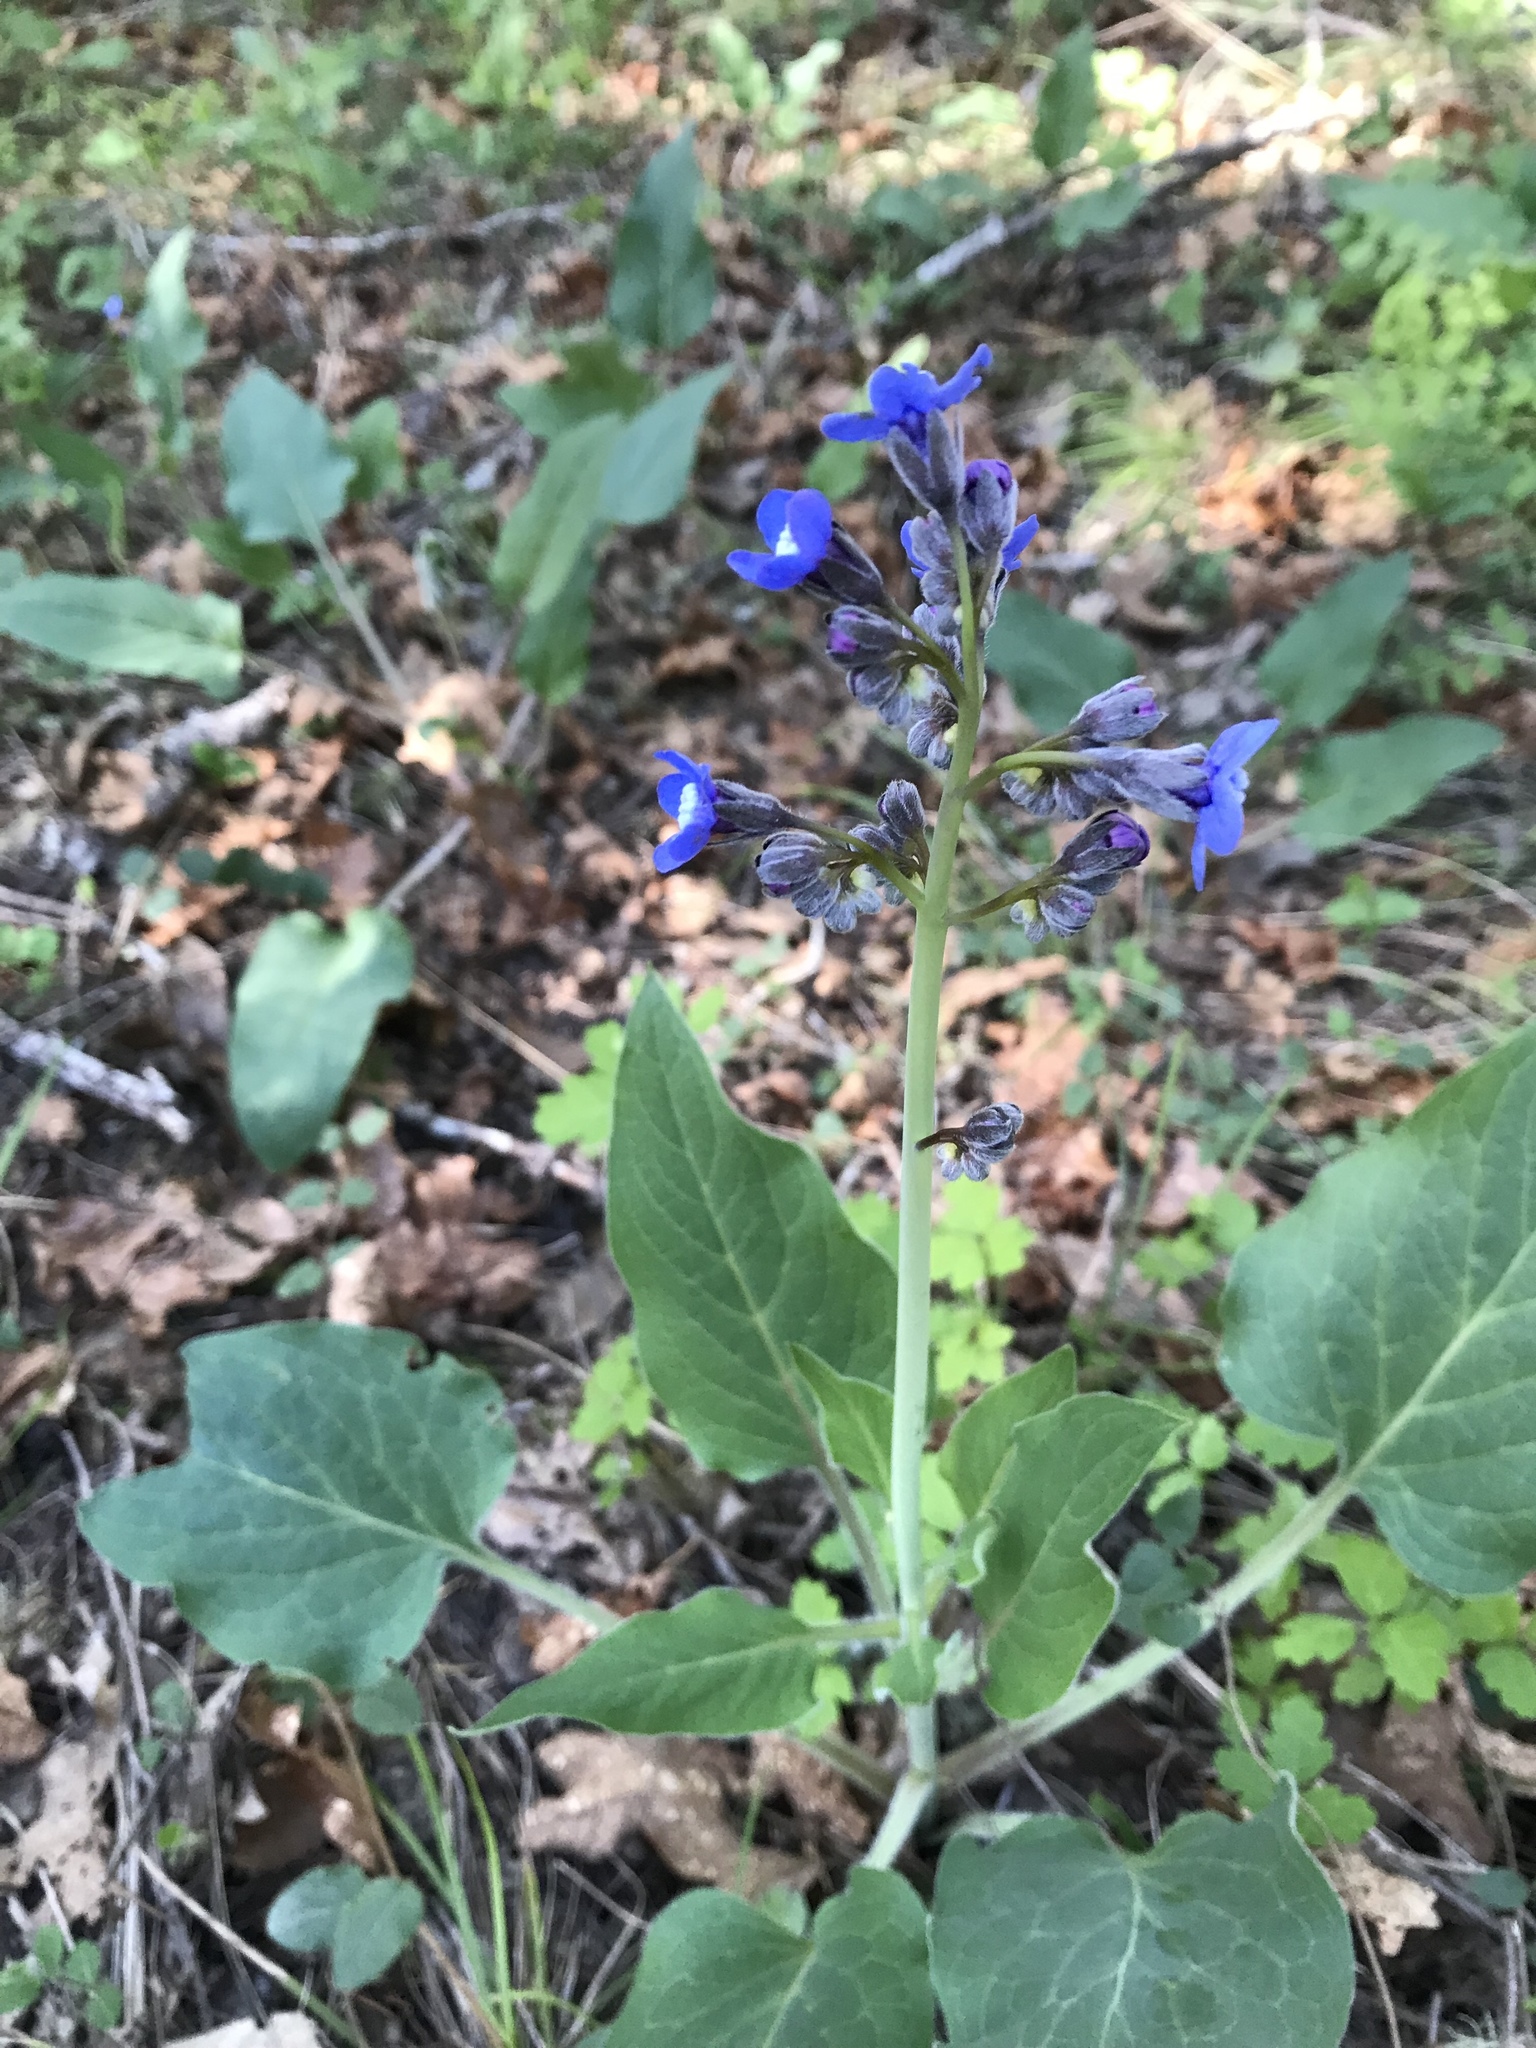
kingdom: Plantae
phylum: Tracheophyta
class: Magnoliopsida
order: Boraginales
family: Boraginaceae
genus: Adelinia
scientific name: Adelinia grande
